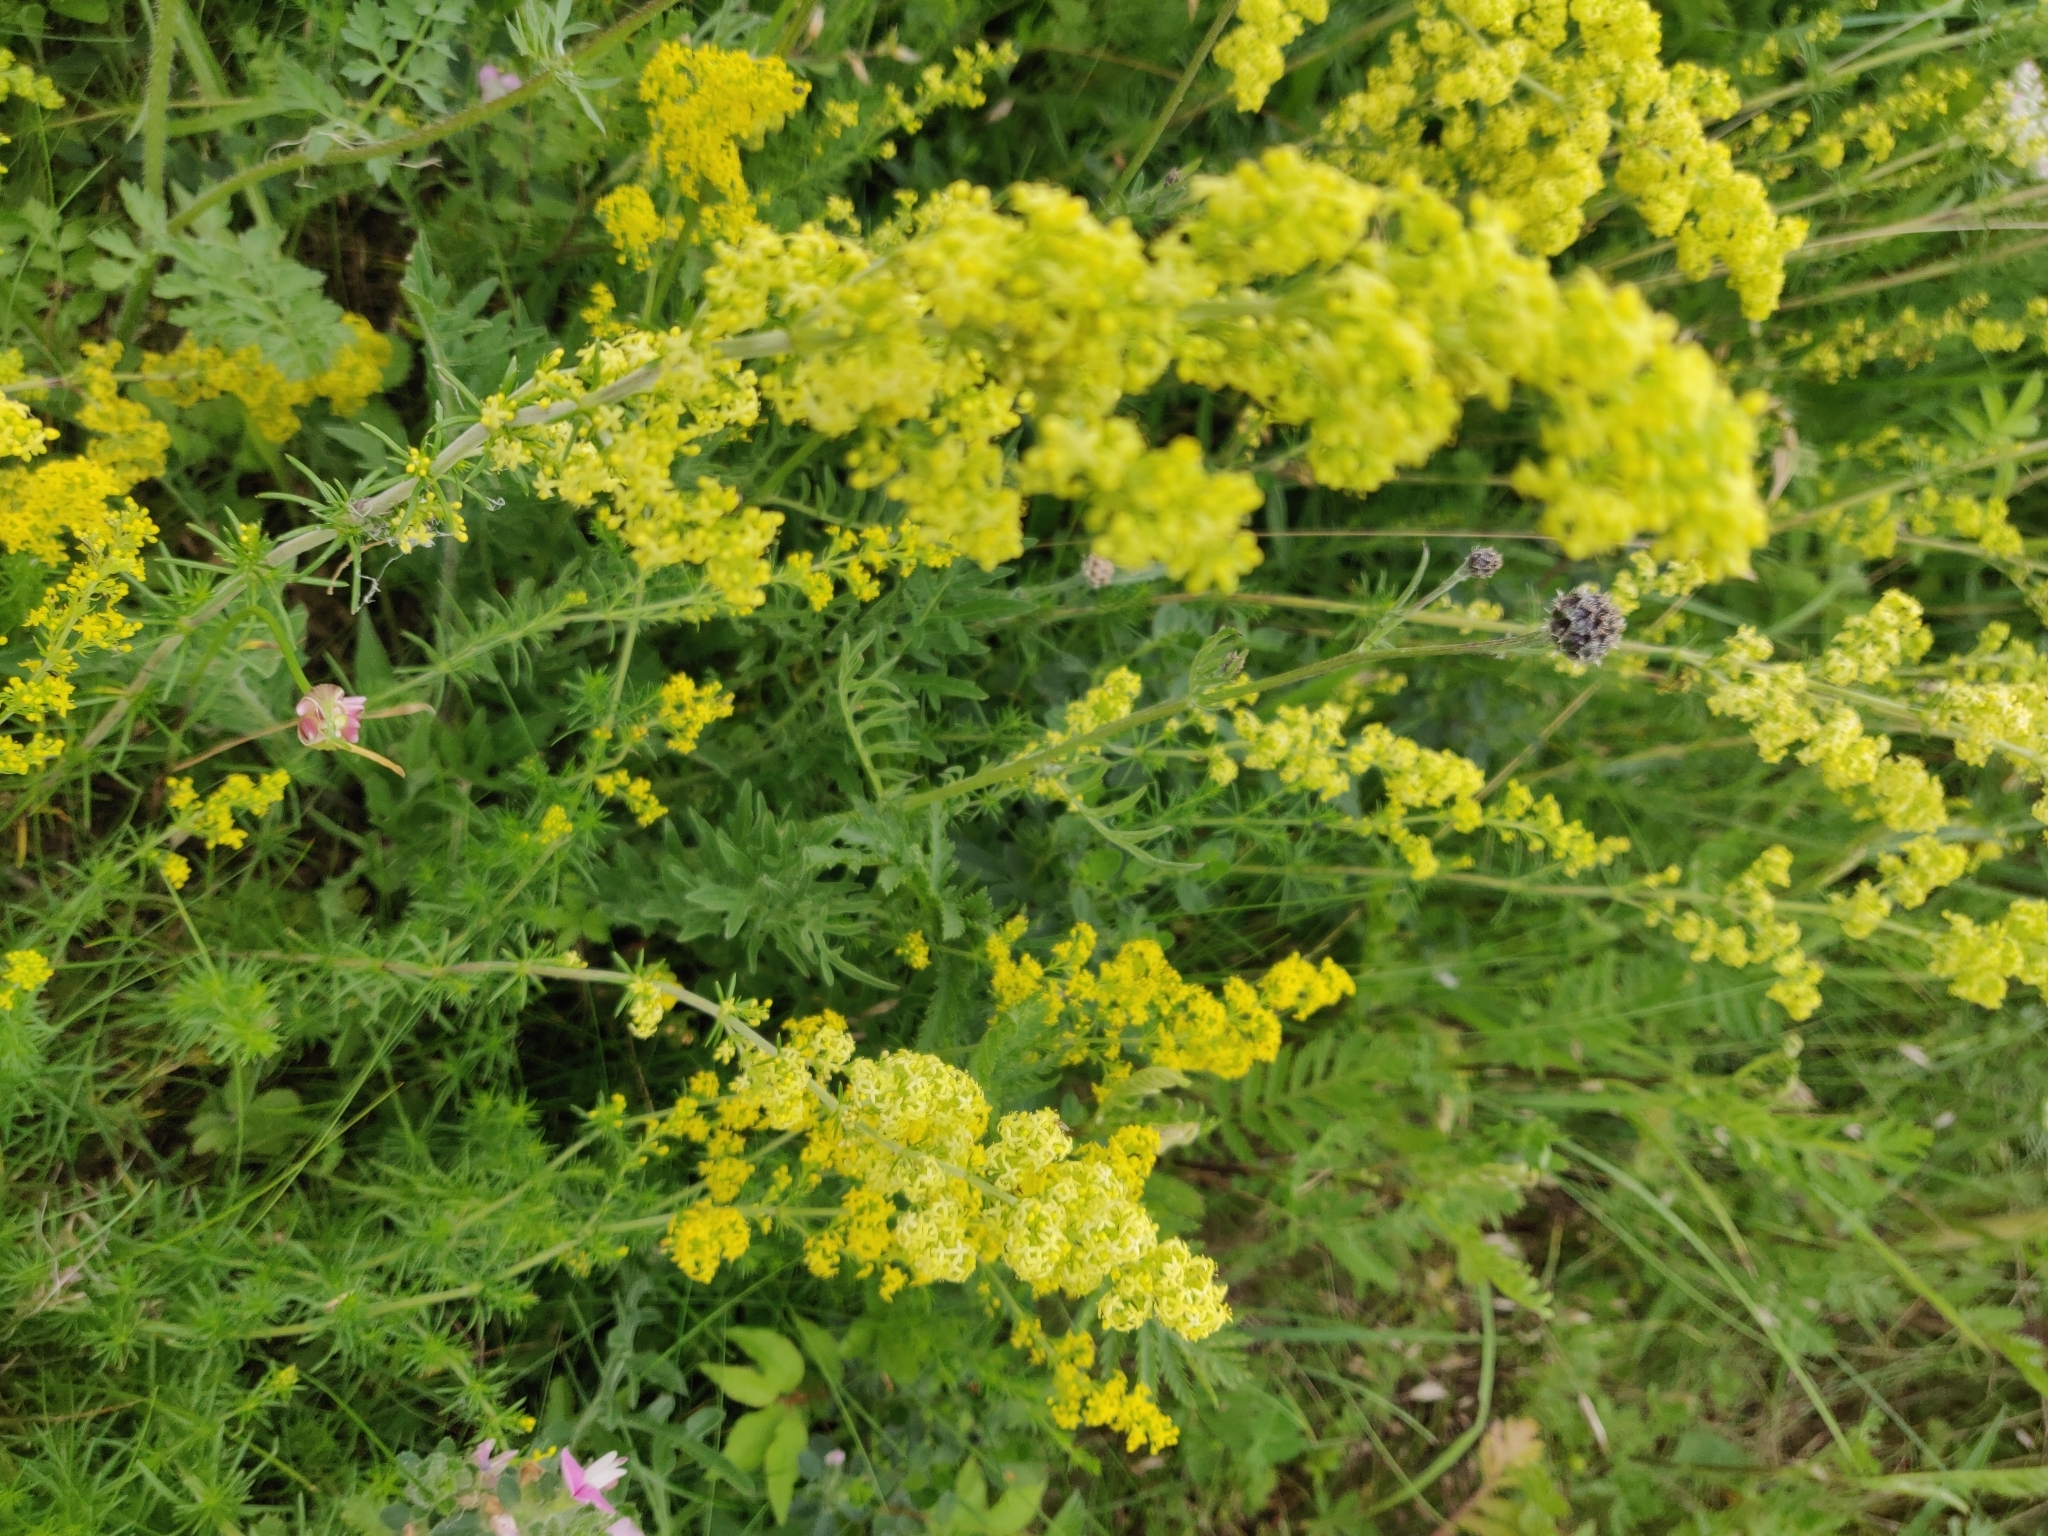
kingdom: Plantae
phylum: Tracheophyta
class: Magnoliopsida
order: Gentianales
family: Rubiaceae
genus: Galium
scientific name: Galium verum
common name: Lady's bedstraw
